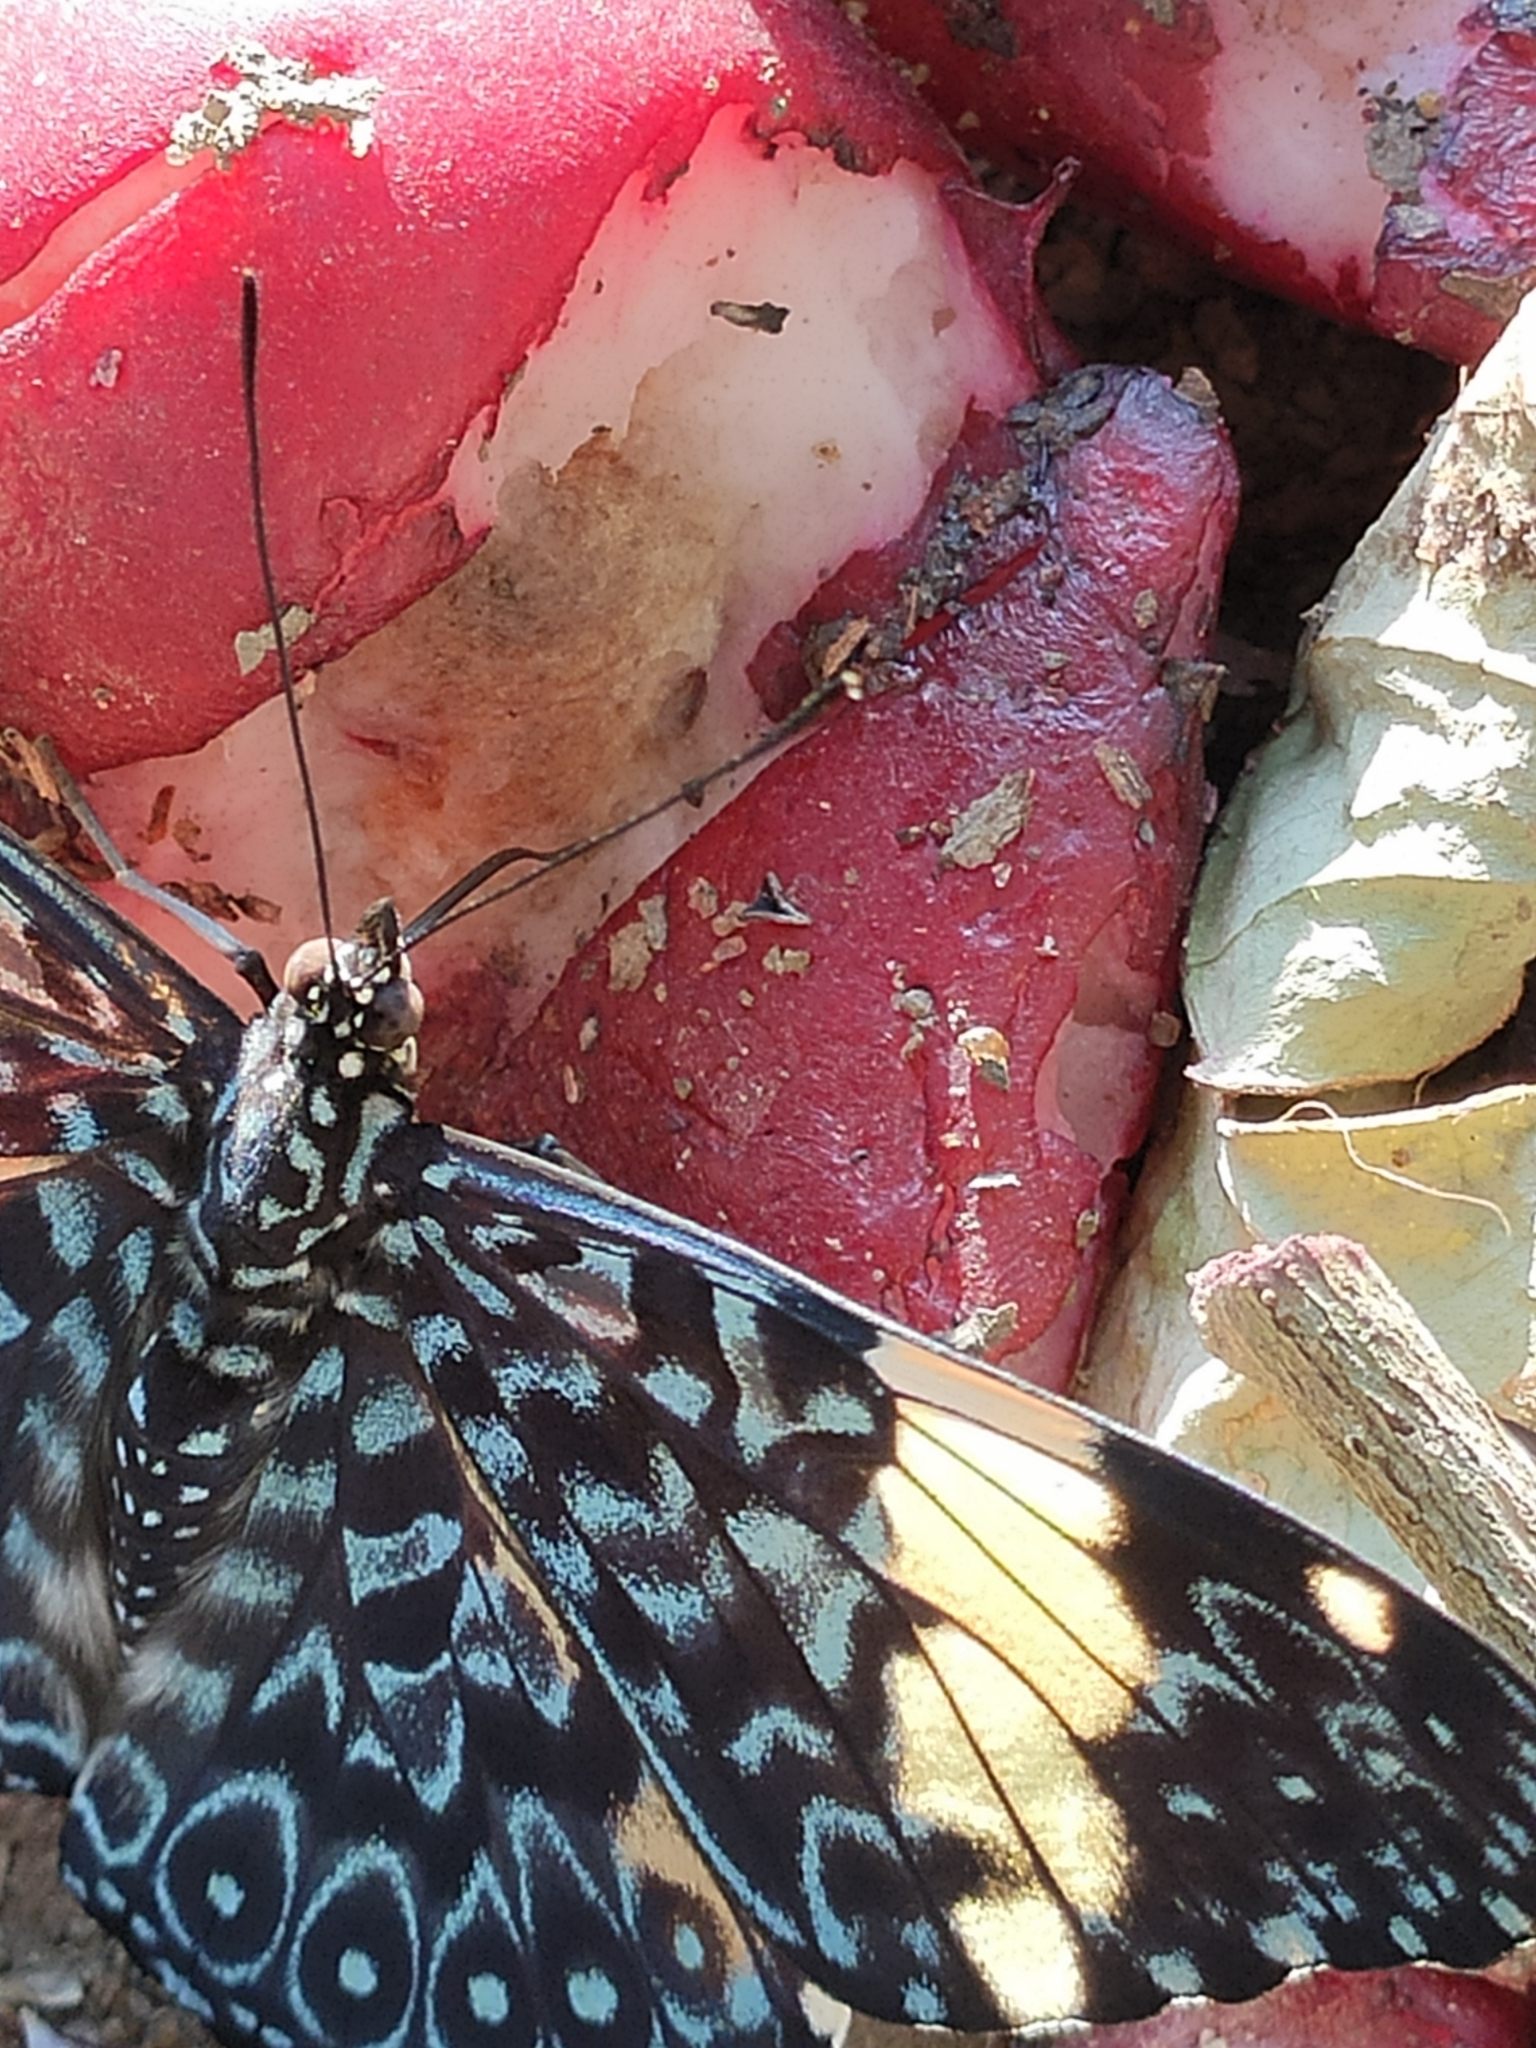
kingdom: Animalia
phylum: Arthropoda
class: Insecta
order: Lepidoptera
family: Nymphalidae
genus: Hamadryas
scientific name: Hamadryas amphinome
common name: Red cracker
